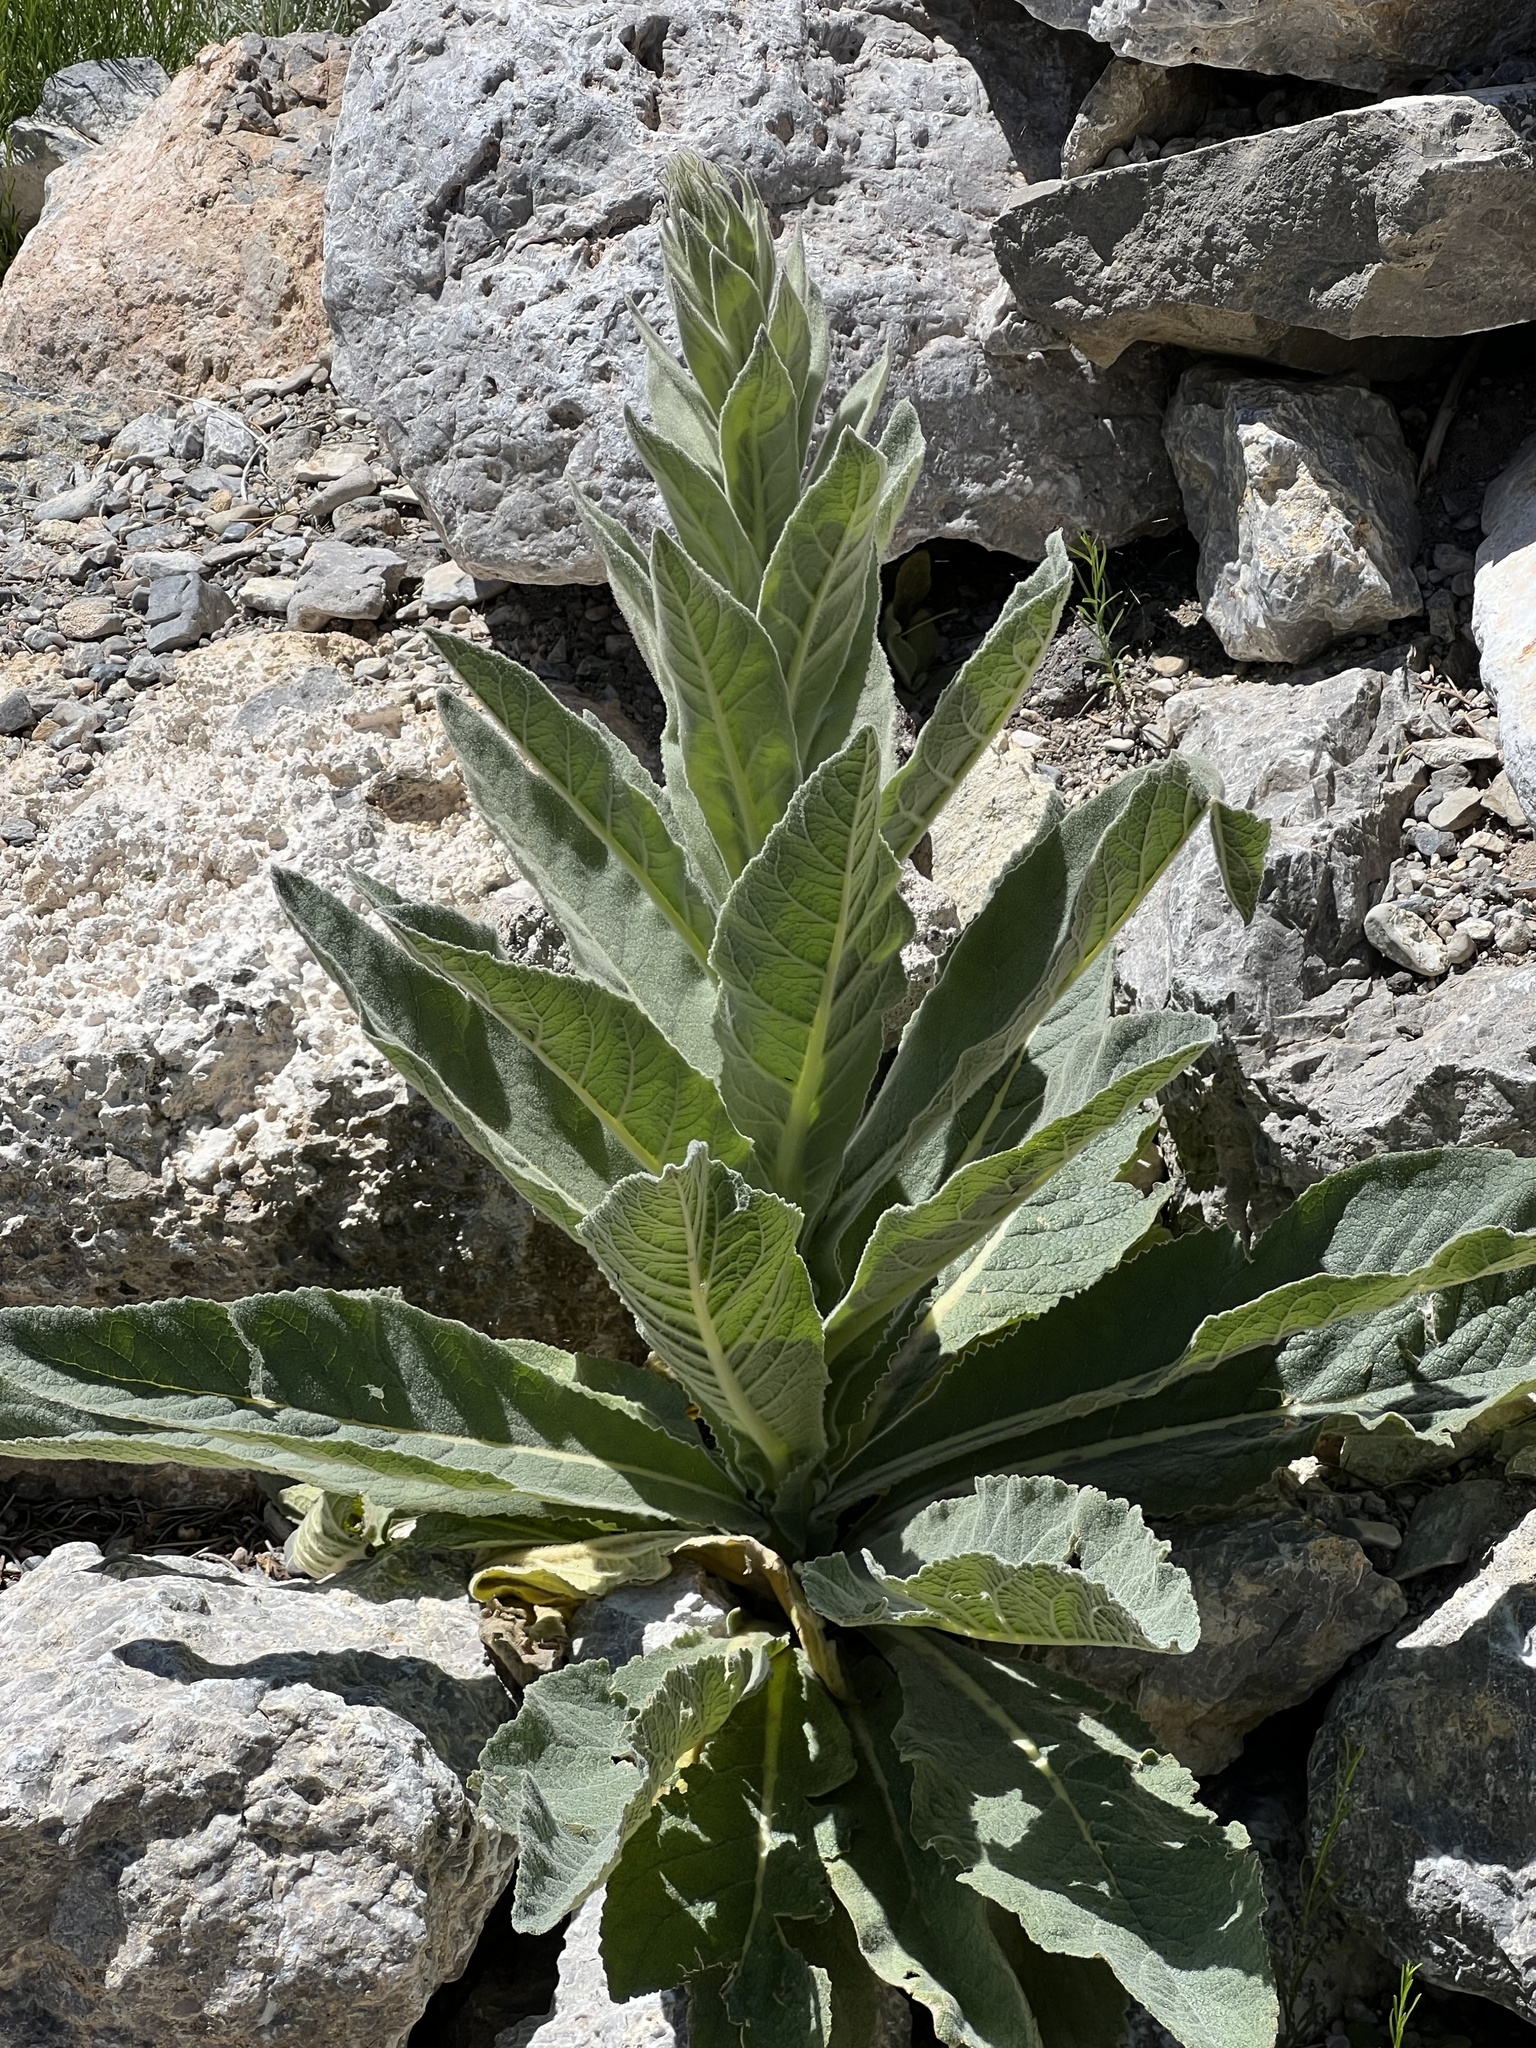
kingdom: Plantae
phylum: Tracheophyta
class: Magnoliopsida
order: Lamiales
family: Scrophulariaceae
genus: Verbascum
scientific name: Verbascum thapsus
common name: Common mullein
